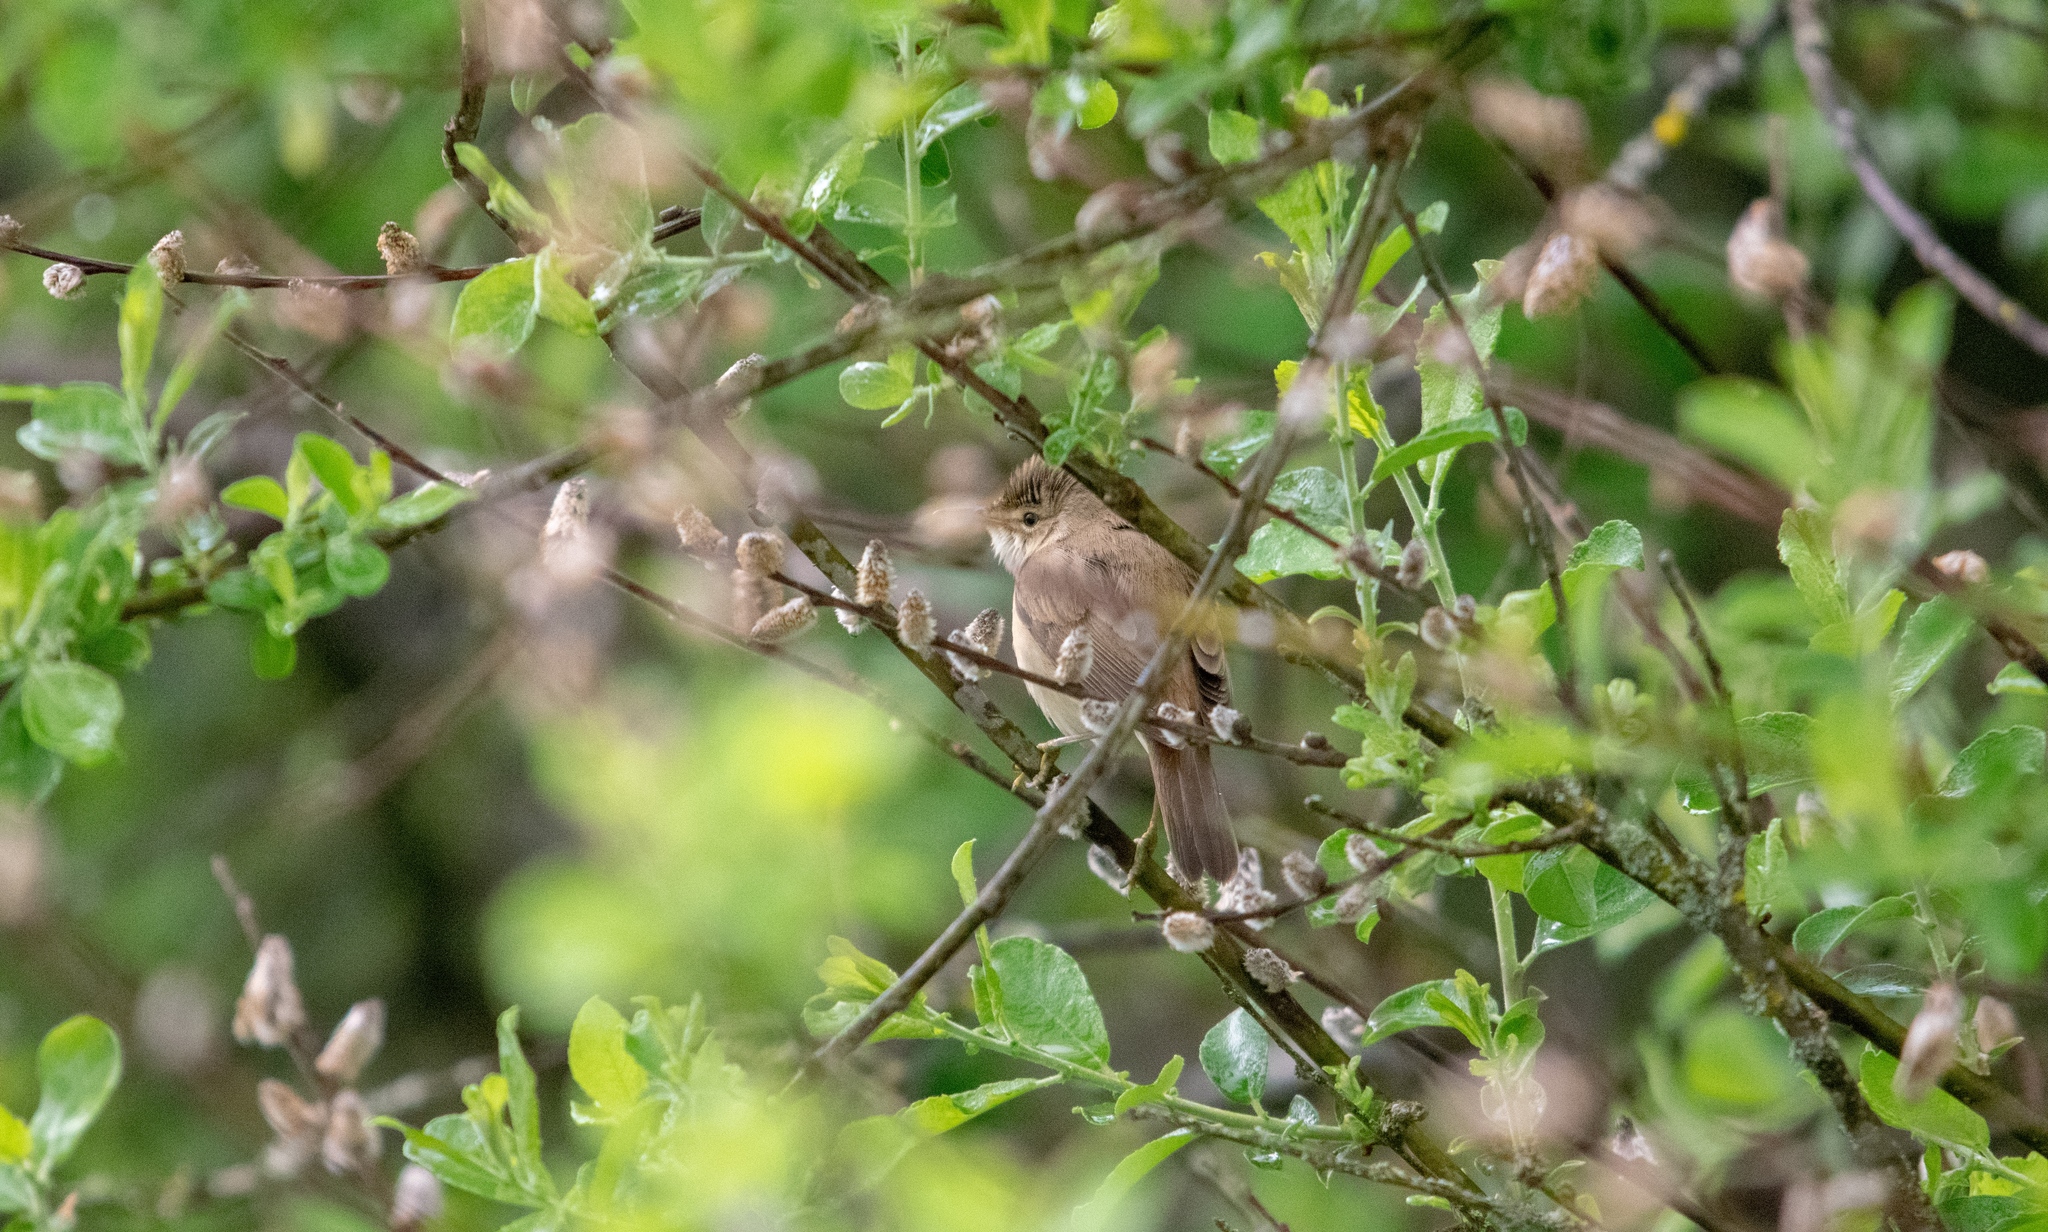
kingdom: Animalia
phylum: Chordata
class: Aves
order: Passeriformes
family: Acrocephalidae
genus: Acrocephalus
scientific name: Acrocephalus scirpaceus
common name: Eurasian reed warbler
